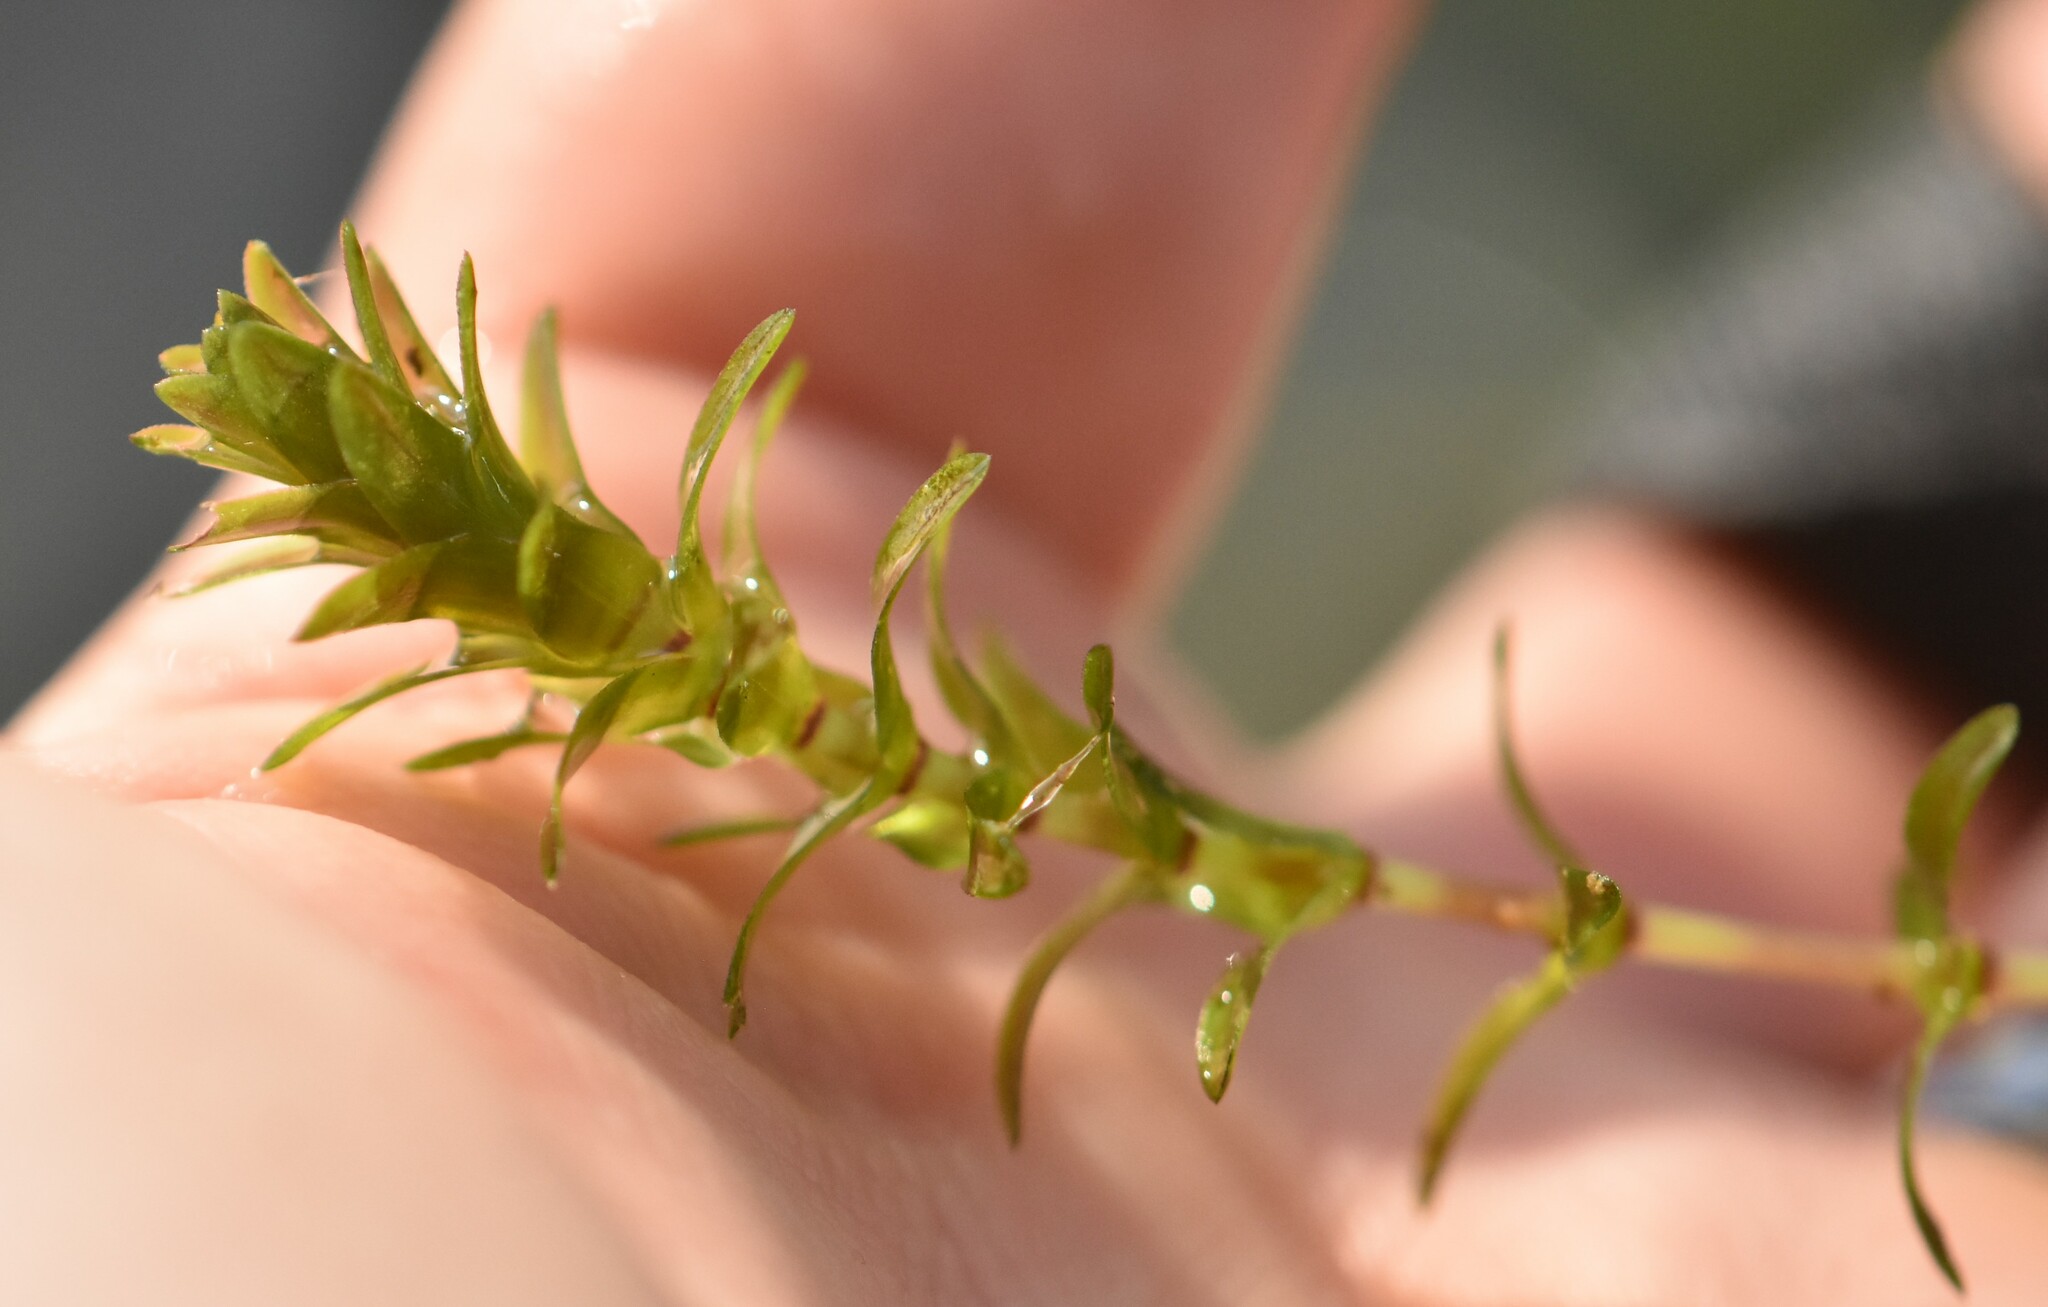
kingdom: Plantae
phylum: Tracheophyta
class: Liliopsida
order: Alismatales
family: Hydrocharitaceae
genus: Elodea
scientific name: Elodea canadensis
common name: Canadian waterweed
